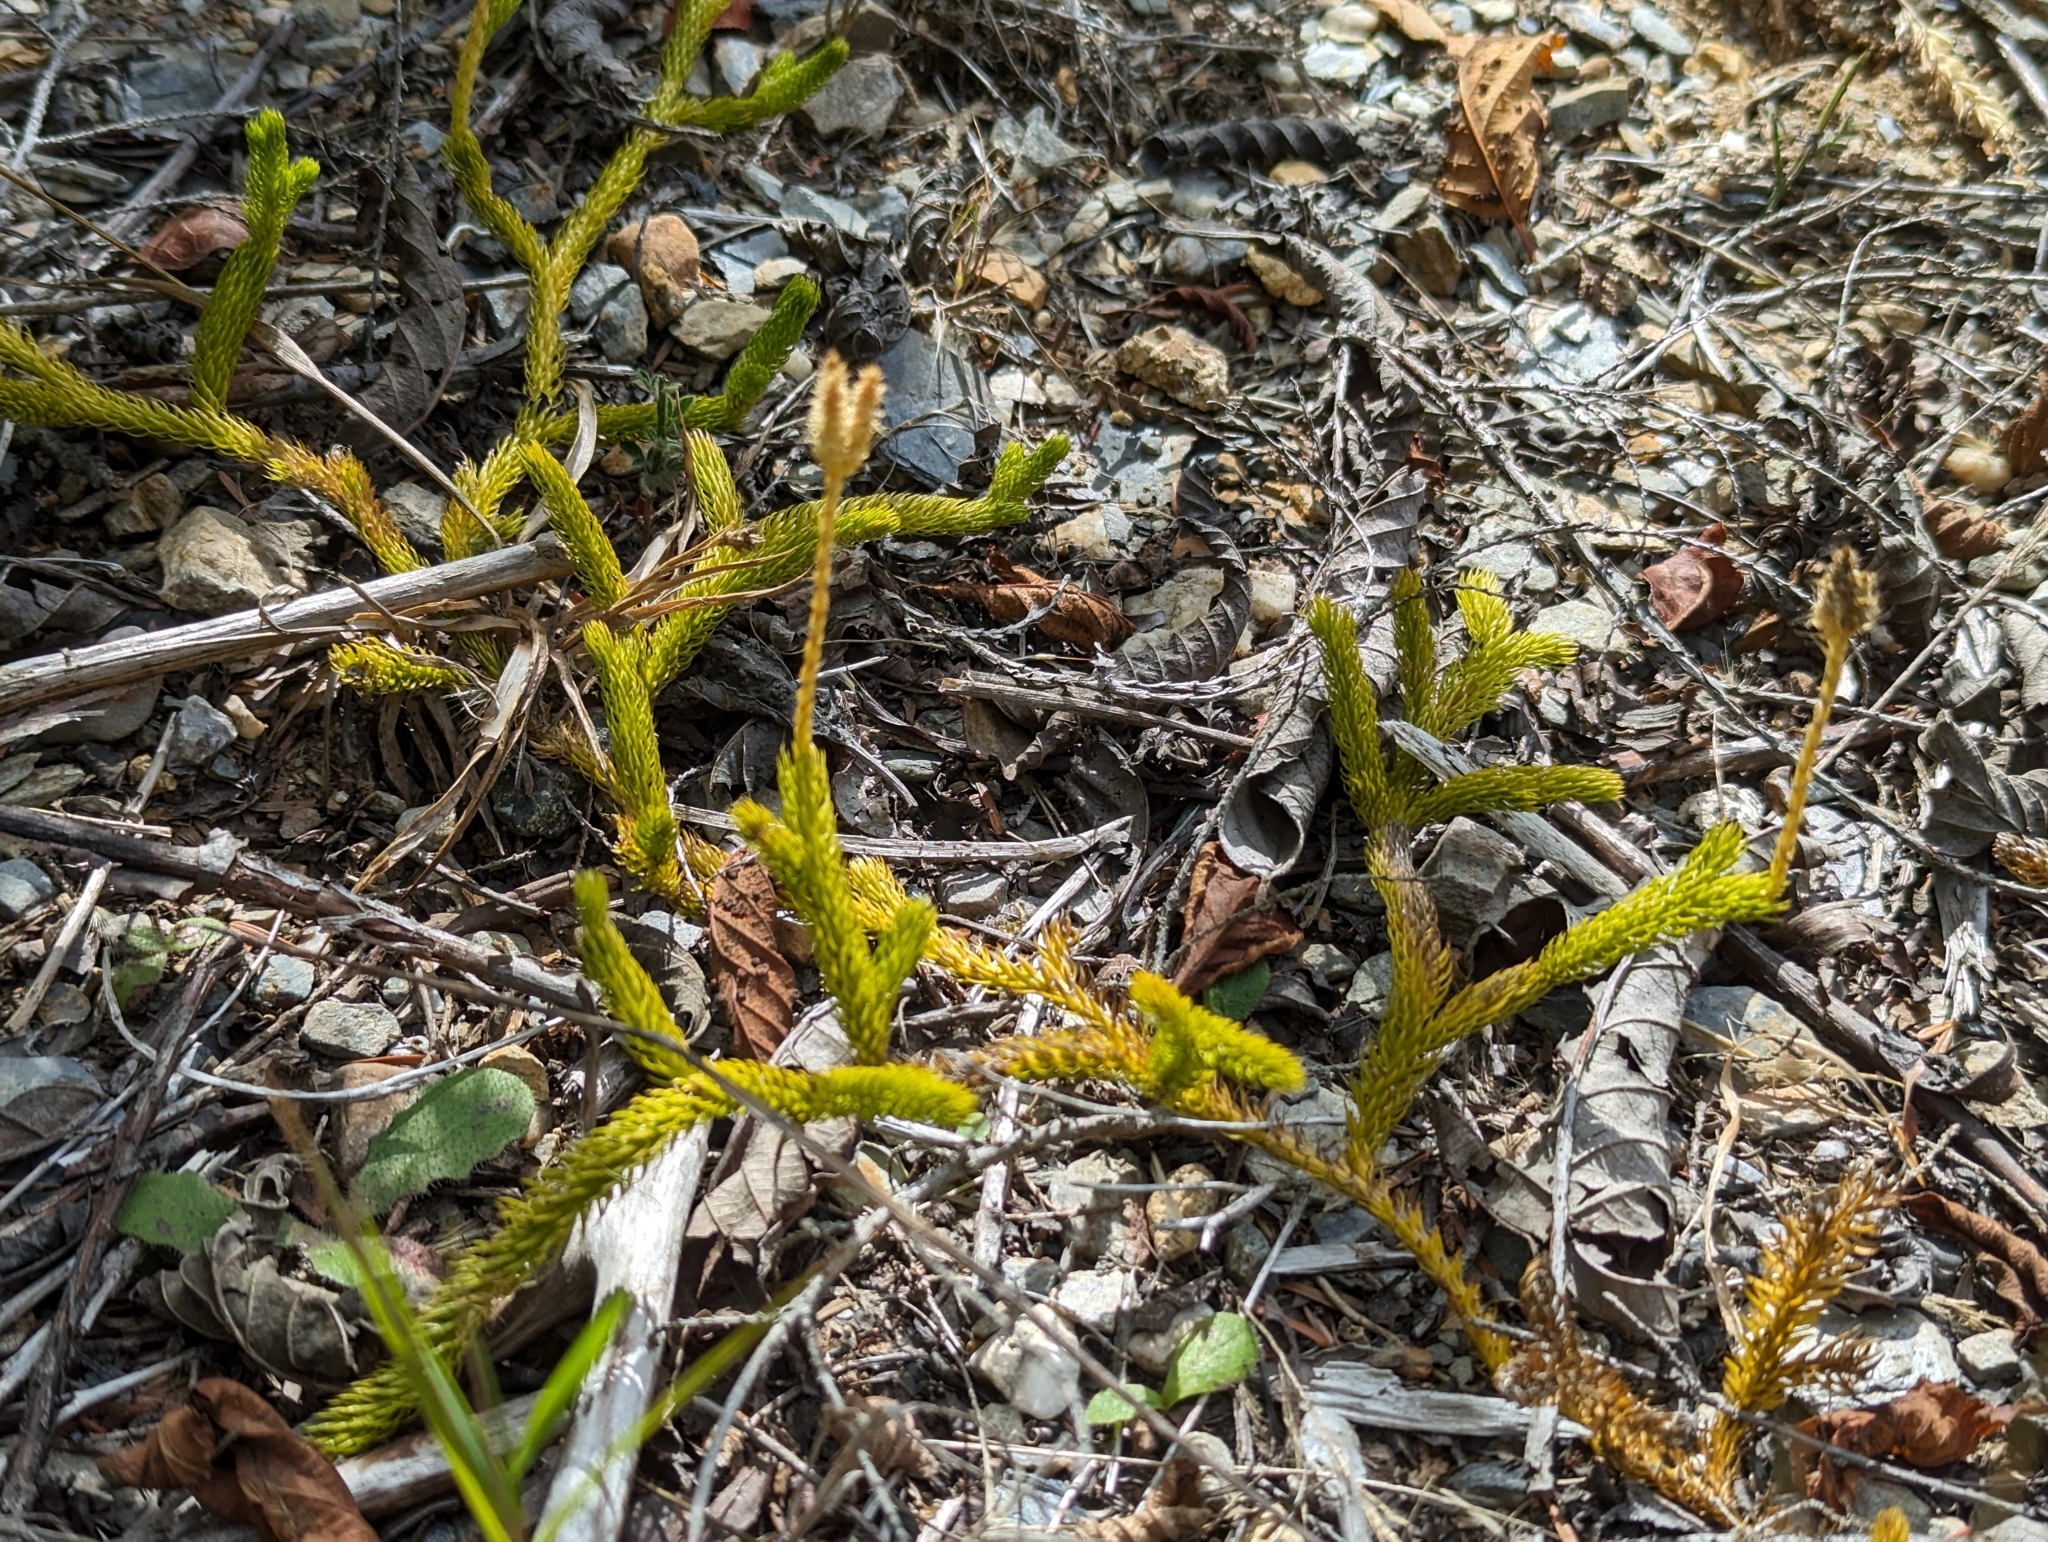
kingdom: Plantae
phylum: Tracheophyta
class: Lycopodiopsida
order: Lycopodiales
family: Lycopodiaceae
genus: Lycopodium
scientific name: Lycopodium clavatum
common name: Stag's-horn clubmoss
